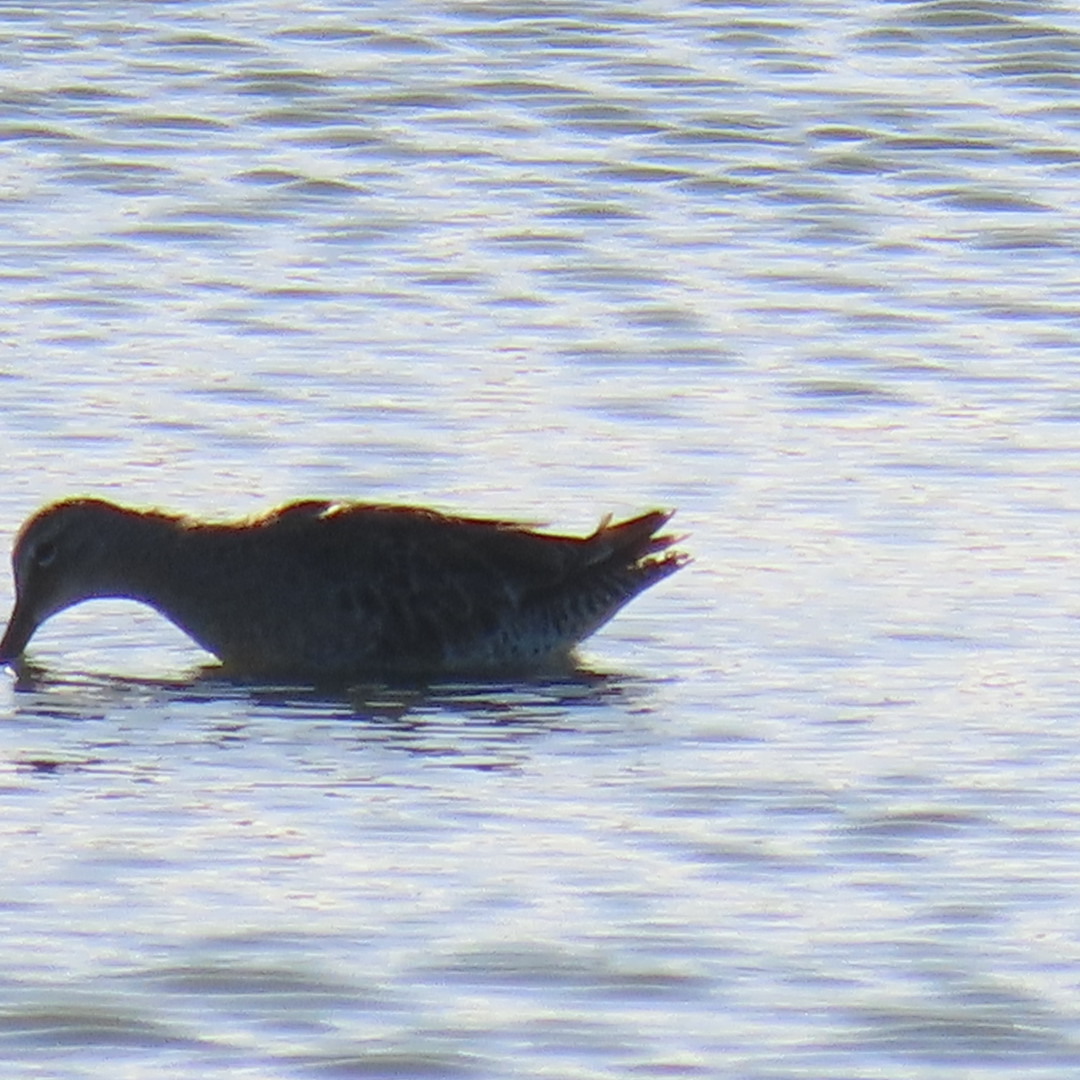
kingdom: Animalia
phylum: Chordata
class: Aves
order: Charadriiformes
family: Scolopacidae
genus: Limnodromus
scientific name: Limnodromus
